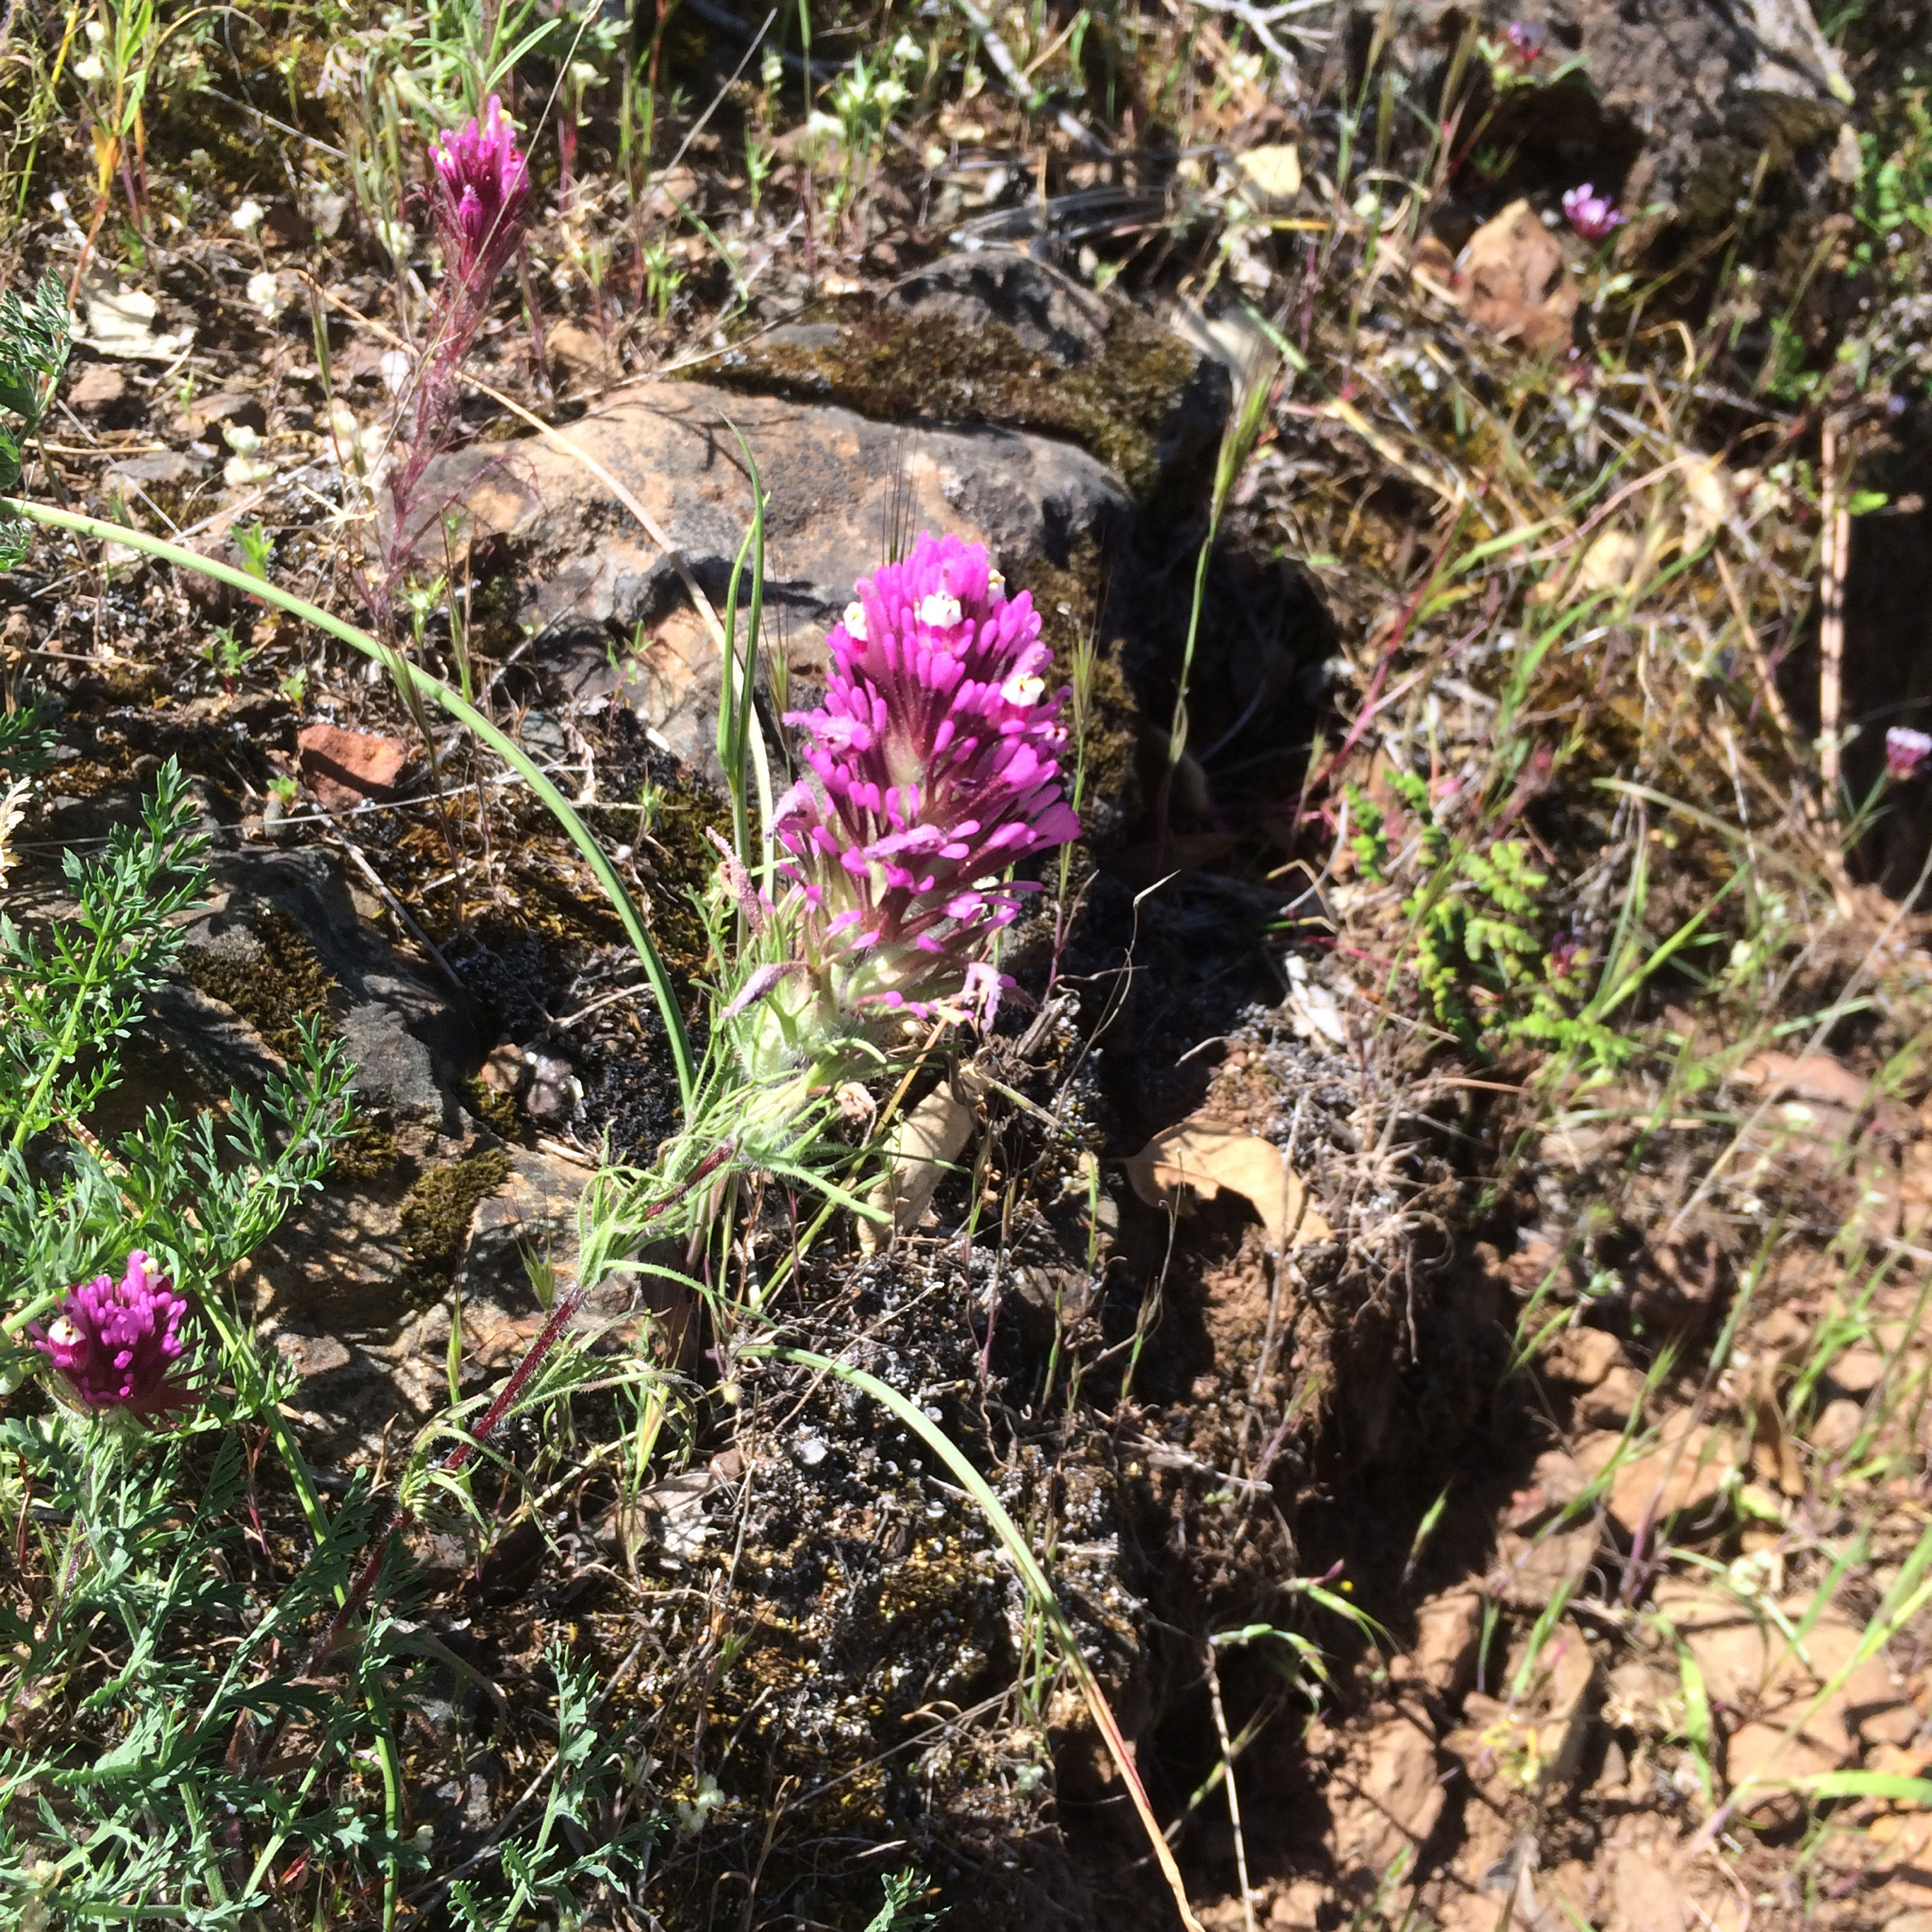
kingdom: Plantae
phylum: Tracheophyta
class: Magnoliopsida
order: Lamiales
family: Orobanchaceae
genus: Castilleja
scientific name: Castilleja exserta
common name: Purple owl-clover
